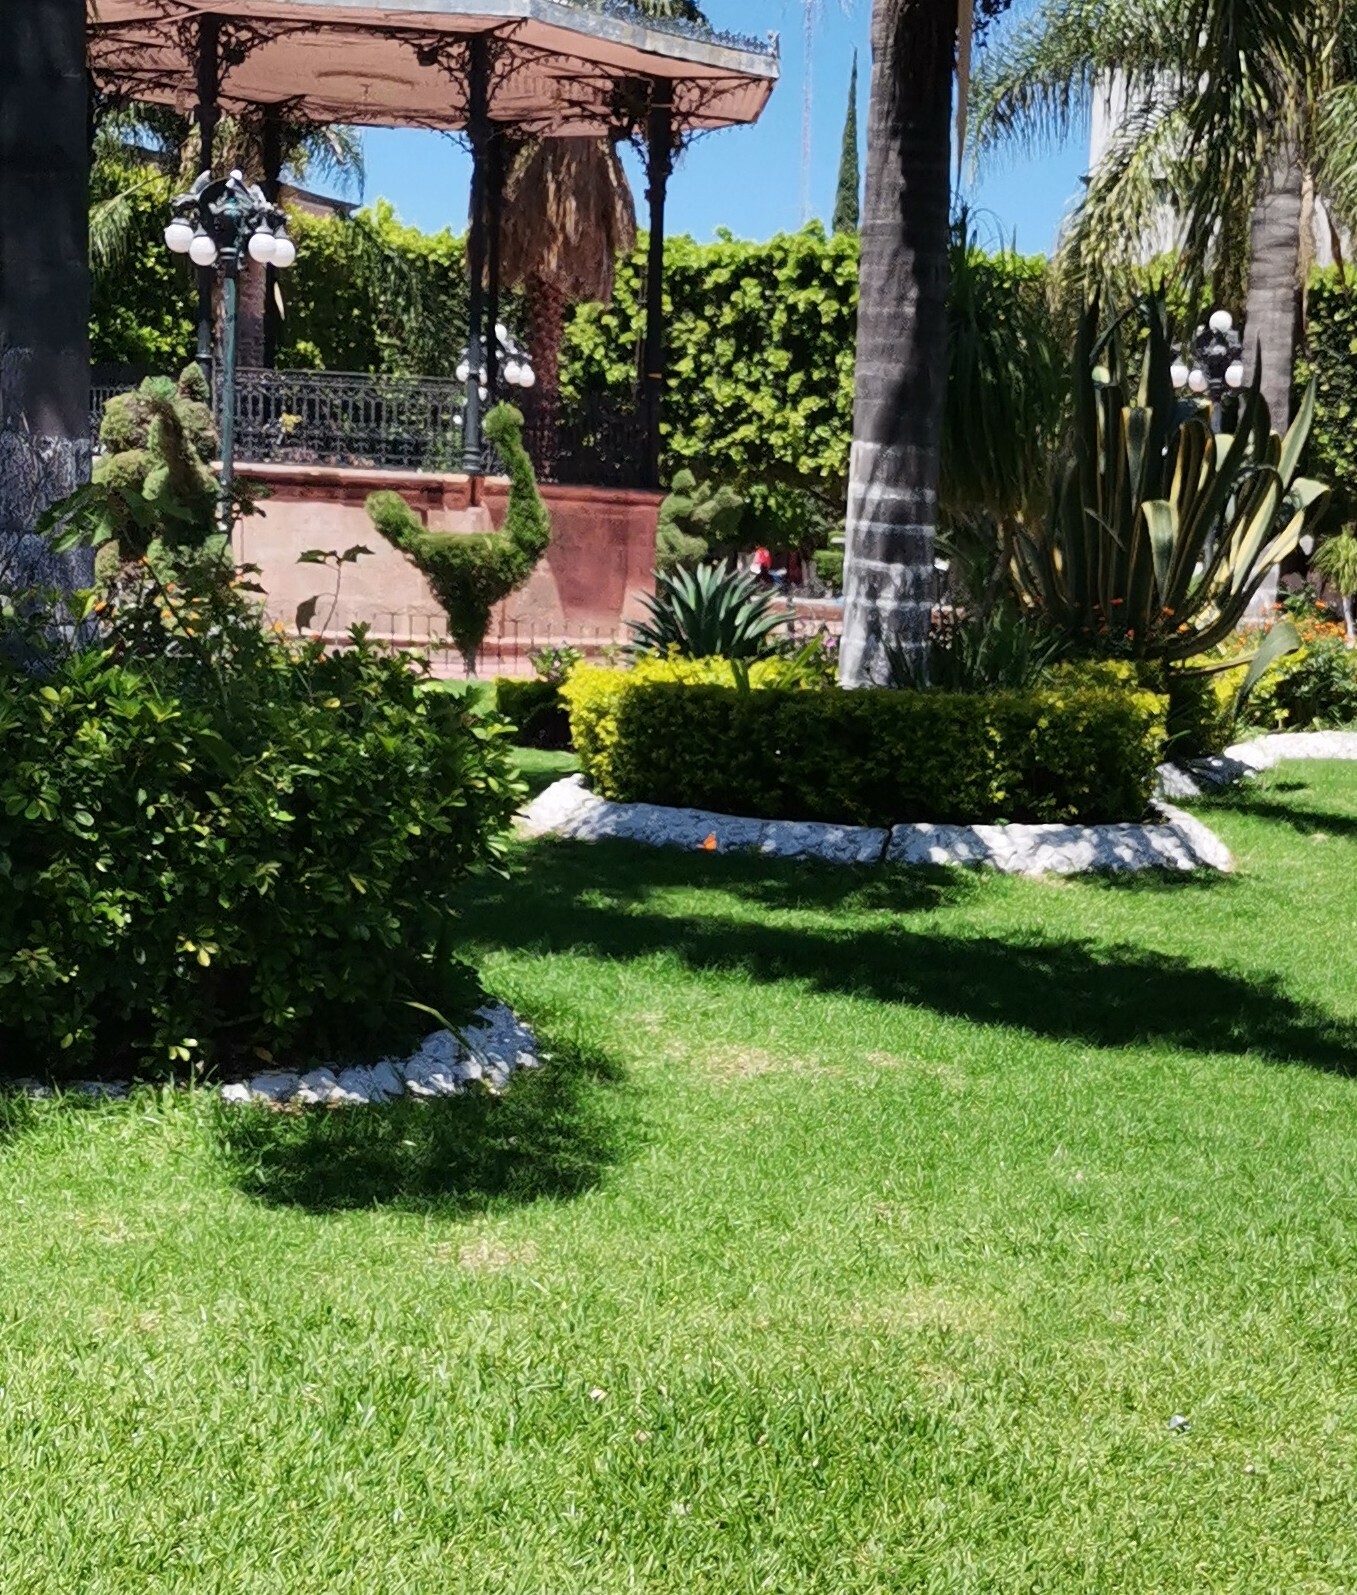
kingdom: Animalia
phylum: Arthropoda
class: Insecta
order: Lepidoptera
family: Nymphalidae
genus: Danaus
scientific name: Danaus plexippus
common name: Monarch
